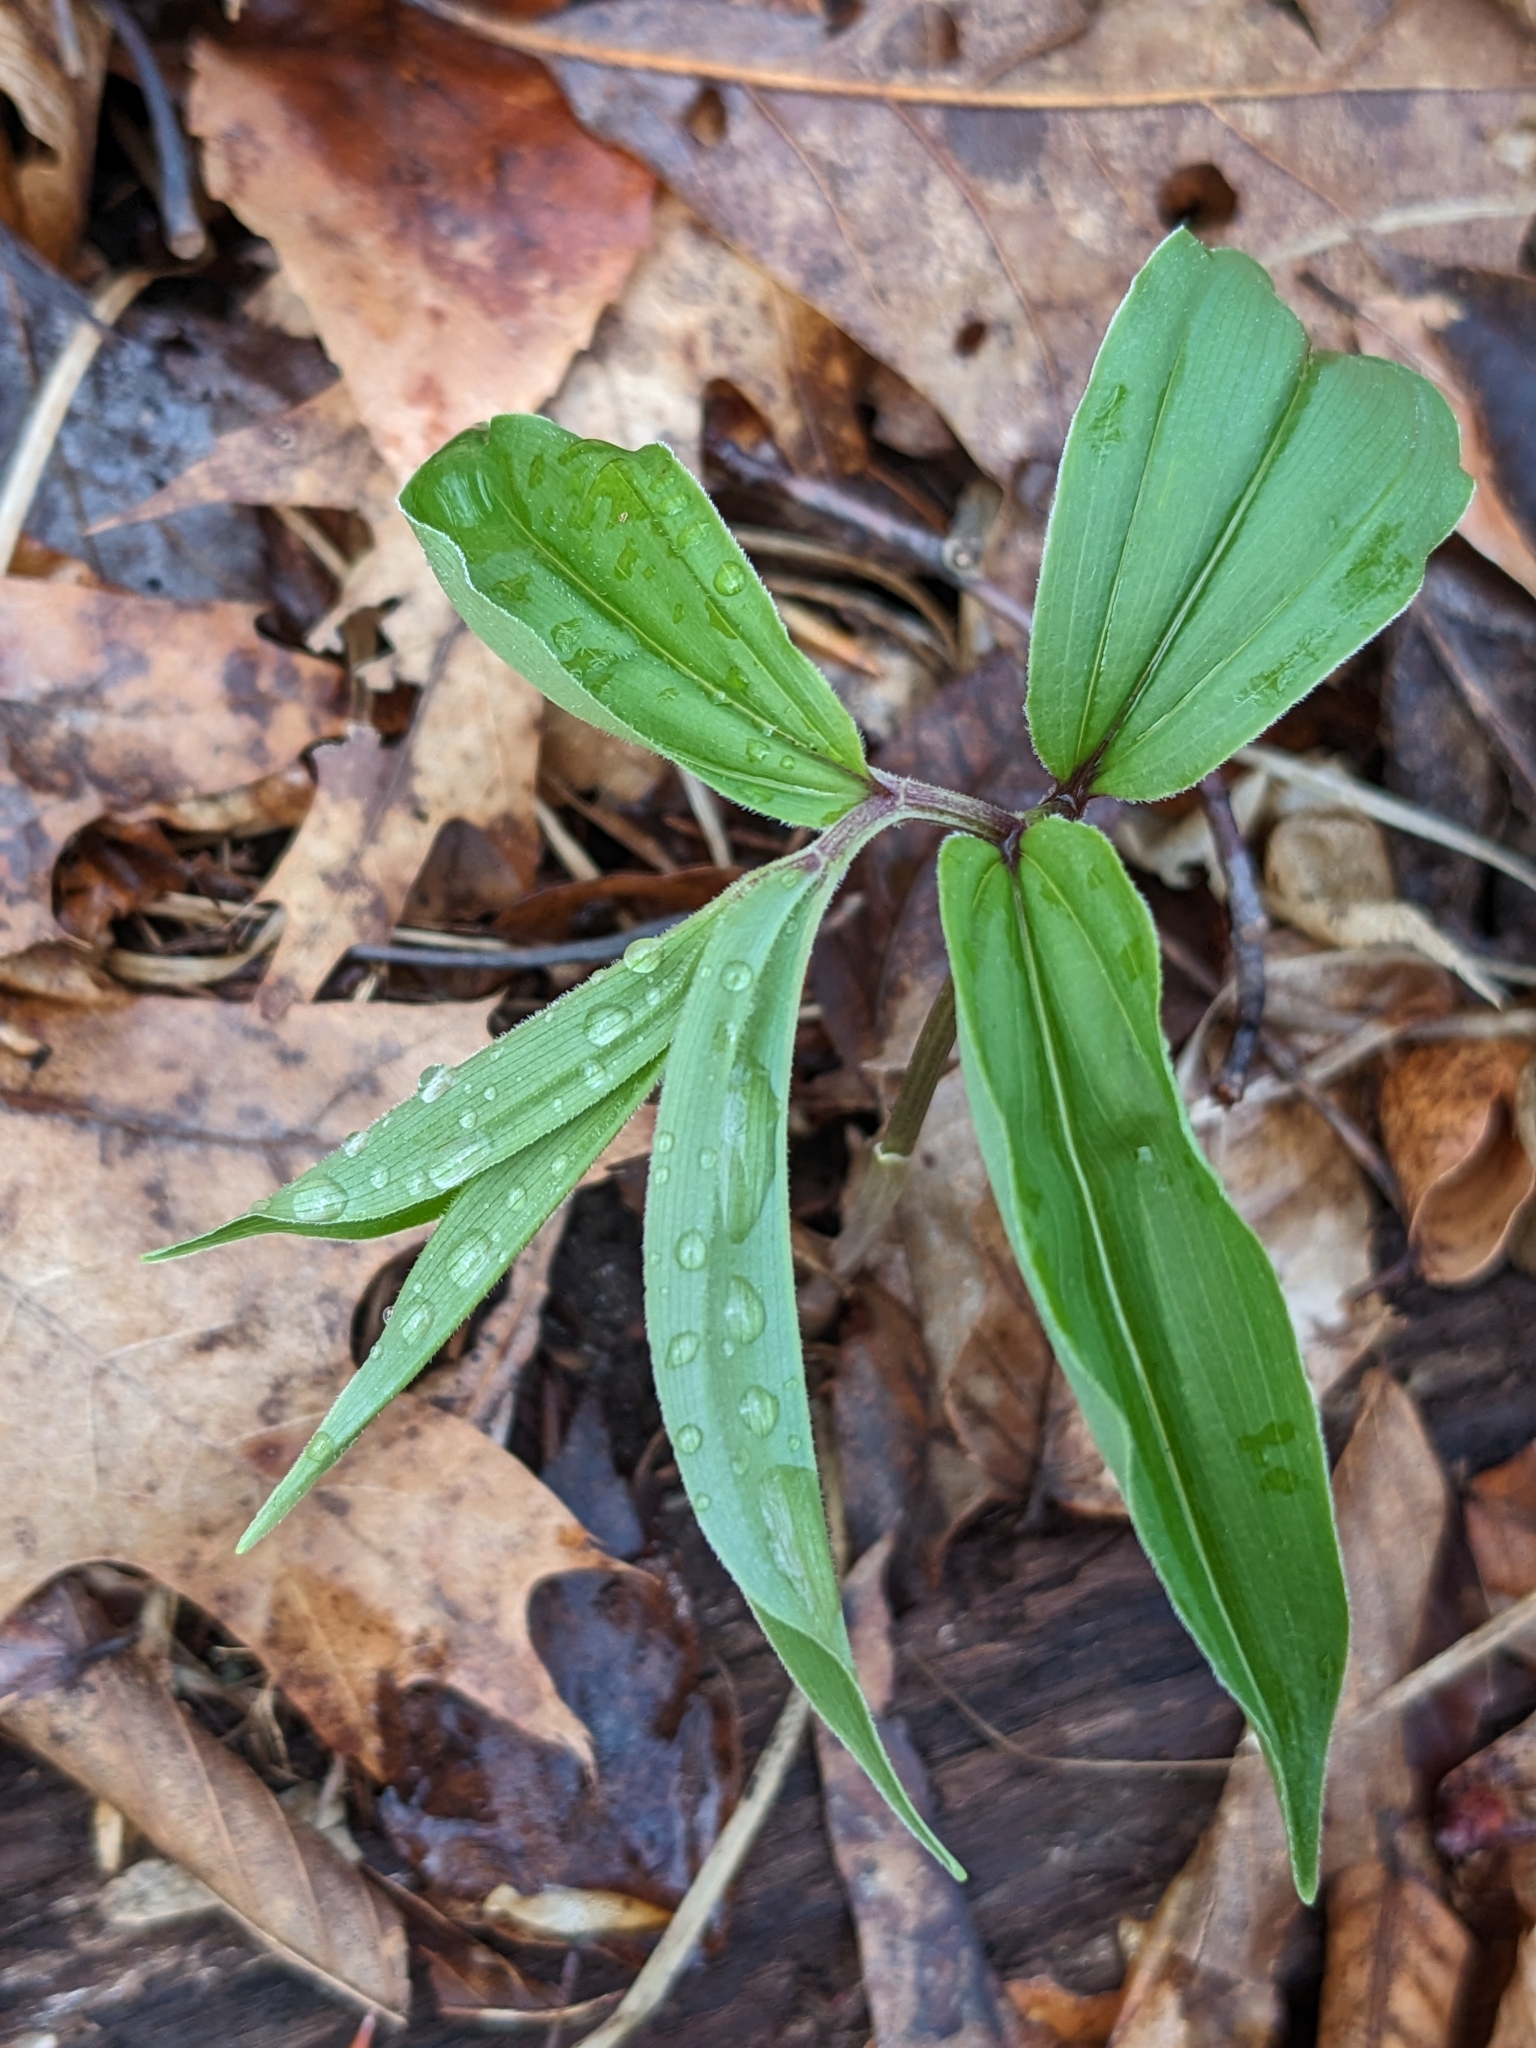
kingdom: Plantae
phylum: Tracheophyta
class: Liliopsida
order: Asparagales
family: Asparagaceae
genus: Maianthemum
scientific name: Maianthemum racemosum
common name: False spikenard
